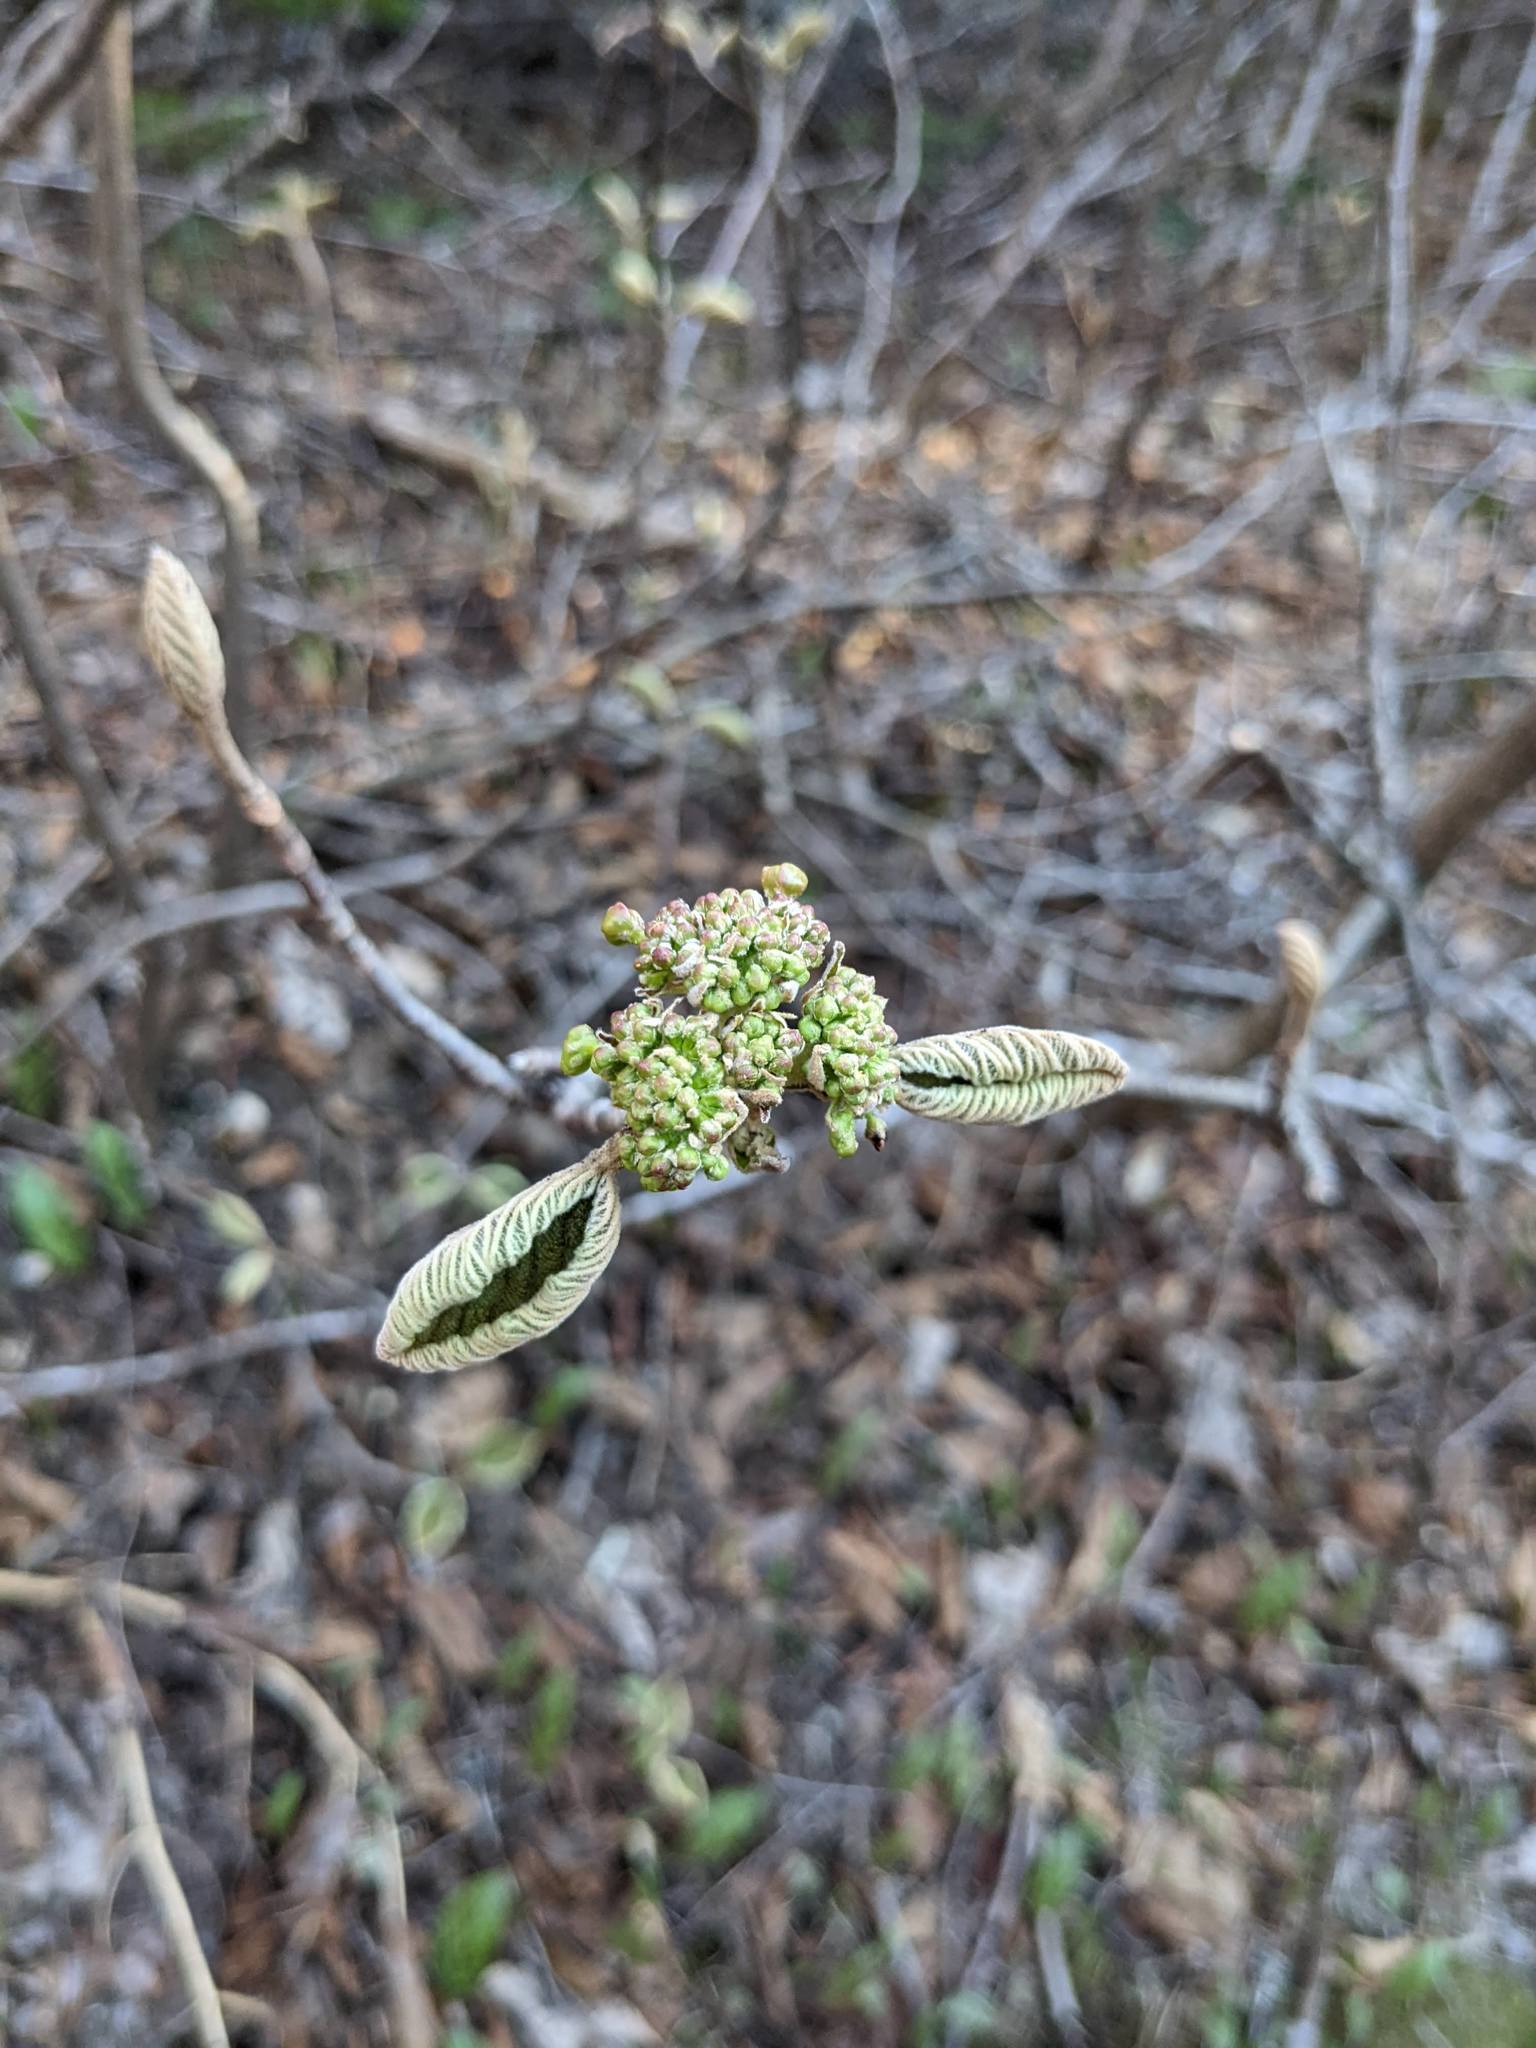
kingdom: Plantae
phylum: Tracheophyta
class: Magnoliopsida
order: Dipsacales
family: Viburnaceae
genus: Viburnum
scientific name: Viburnum lantanoides
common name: Hobblebush
